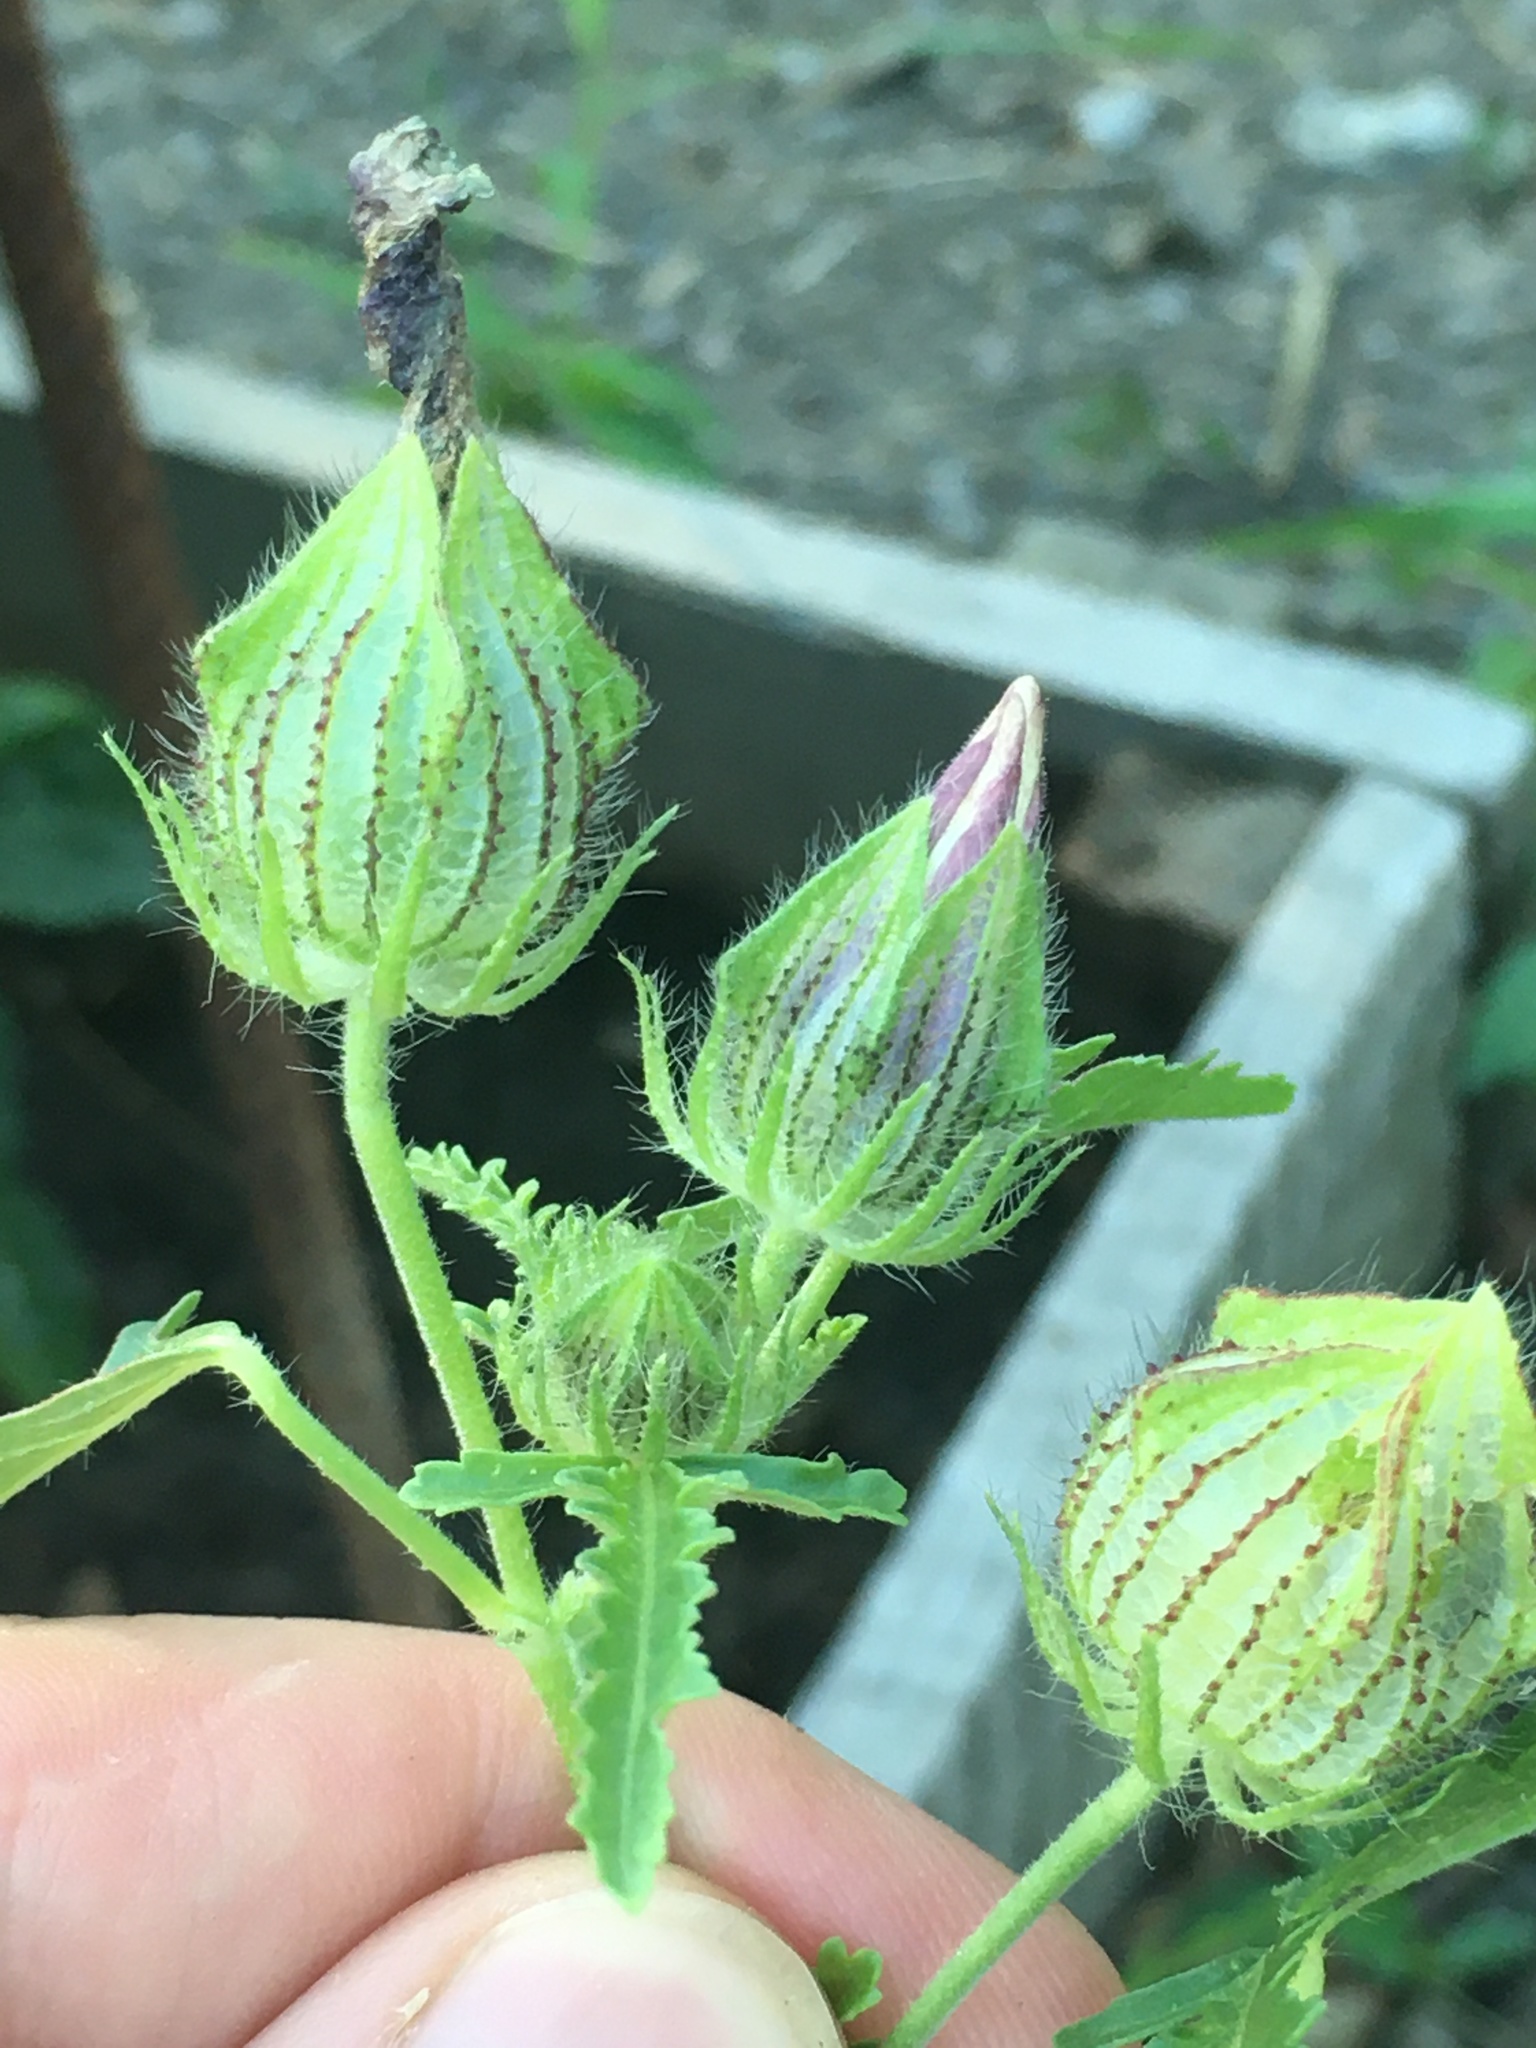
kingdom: Plantae
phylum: Tracheophyta
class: Magnoliopsida
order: Malvales
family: Malvaceae
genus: Hibiscus
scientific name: Hibiscus trionum
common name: Bladder ketmia
